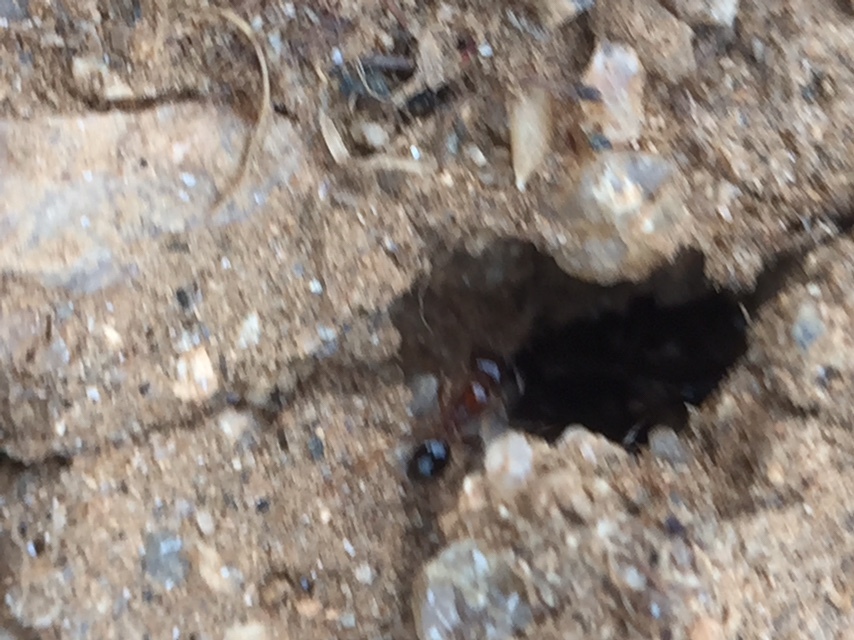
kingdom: Animalia
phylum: Arthropoda
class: Insecta
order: Hymenoptera
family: Formicidae
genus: Trichomyrmex
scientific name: Trichomyrmex
